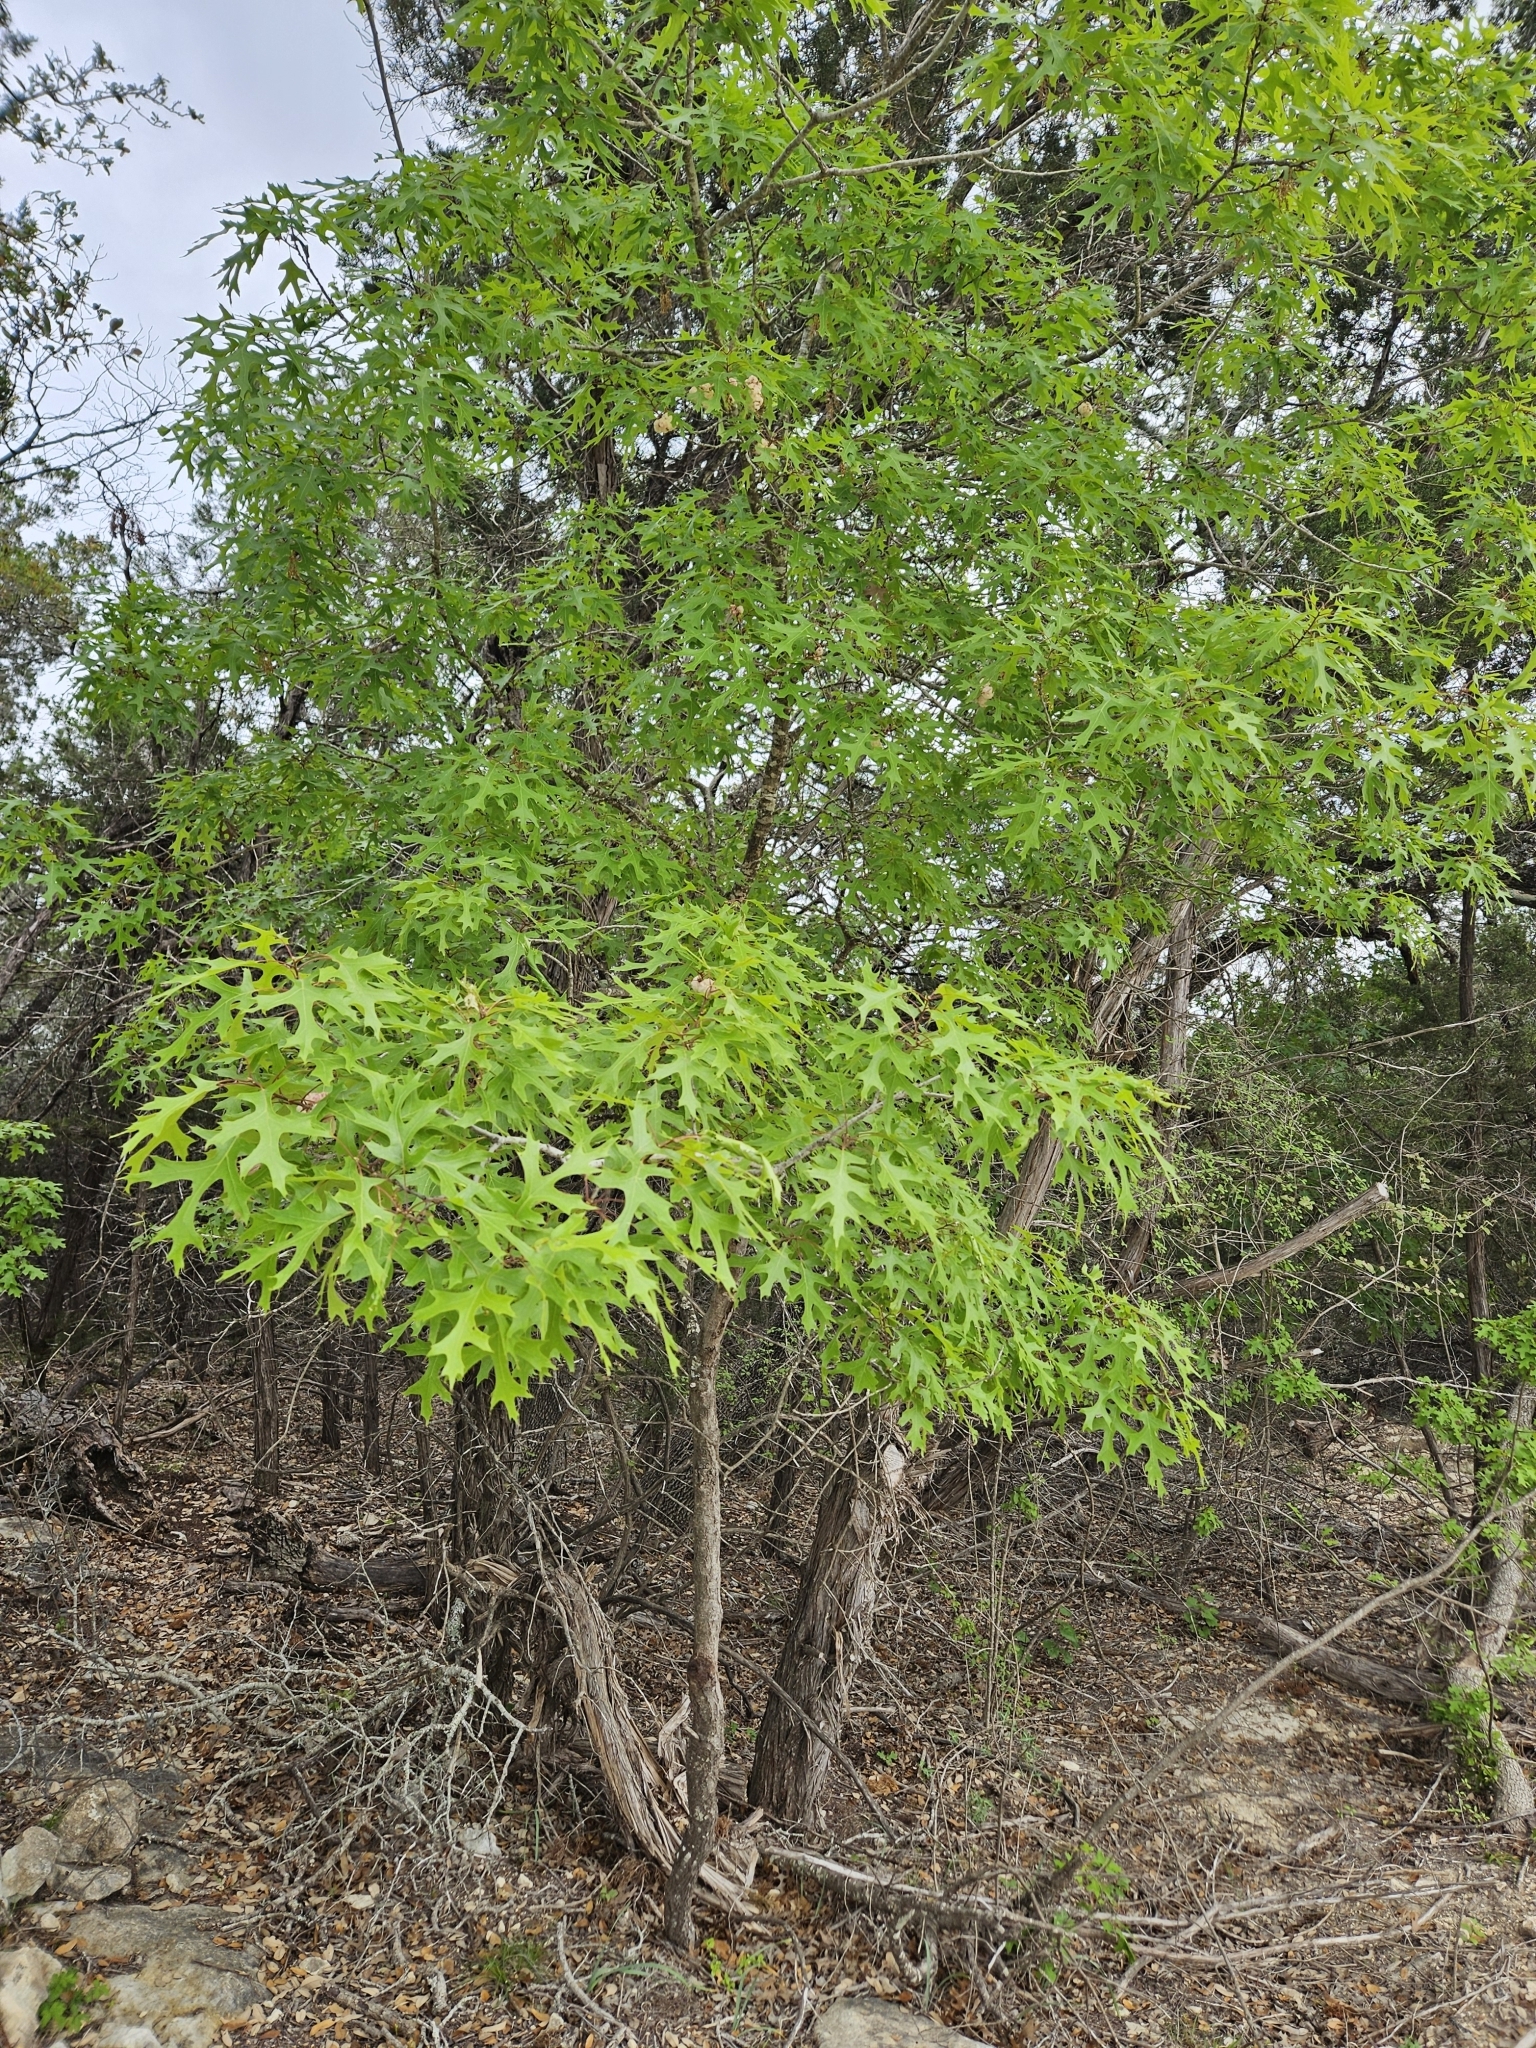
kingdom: Plantae
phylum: Tracheophyta
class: Magnoliopsida
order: Fagales
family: Fagaceae
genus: Quercus
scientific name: Quercus buckleyi
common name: Buckley oak
